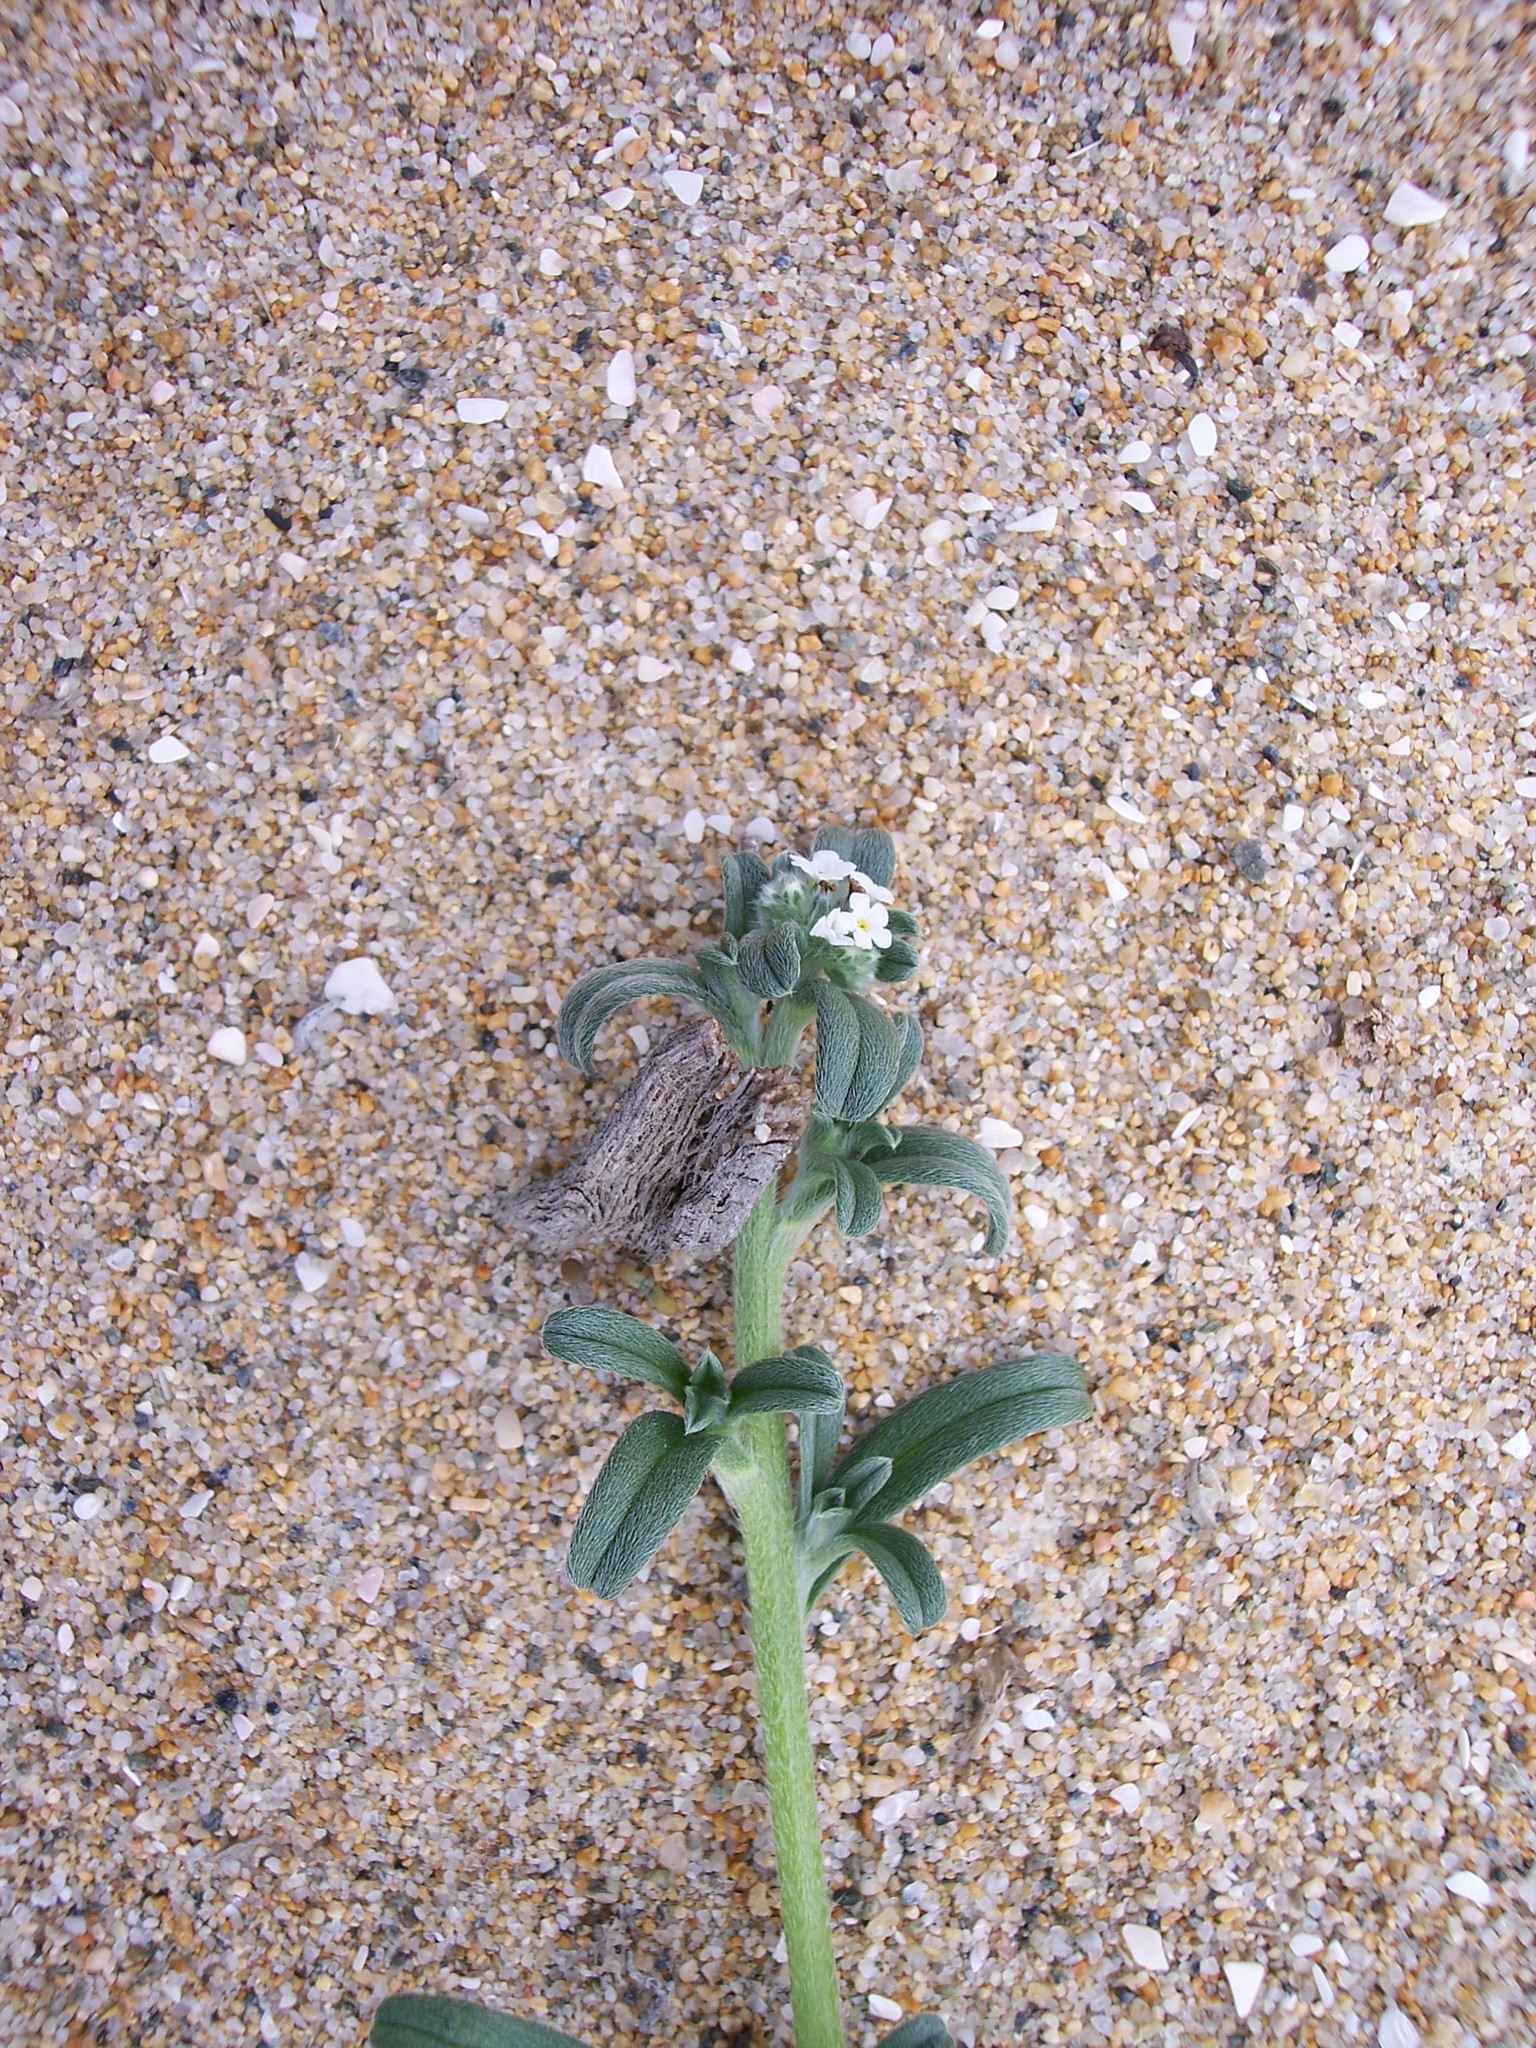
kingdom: Plantae
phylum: Tracheophyta
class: Magnoliopsida
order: Boraginales
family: Boraginaceae
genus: Cryptantha
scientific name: Cryptantha leiocarpa
